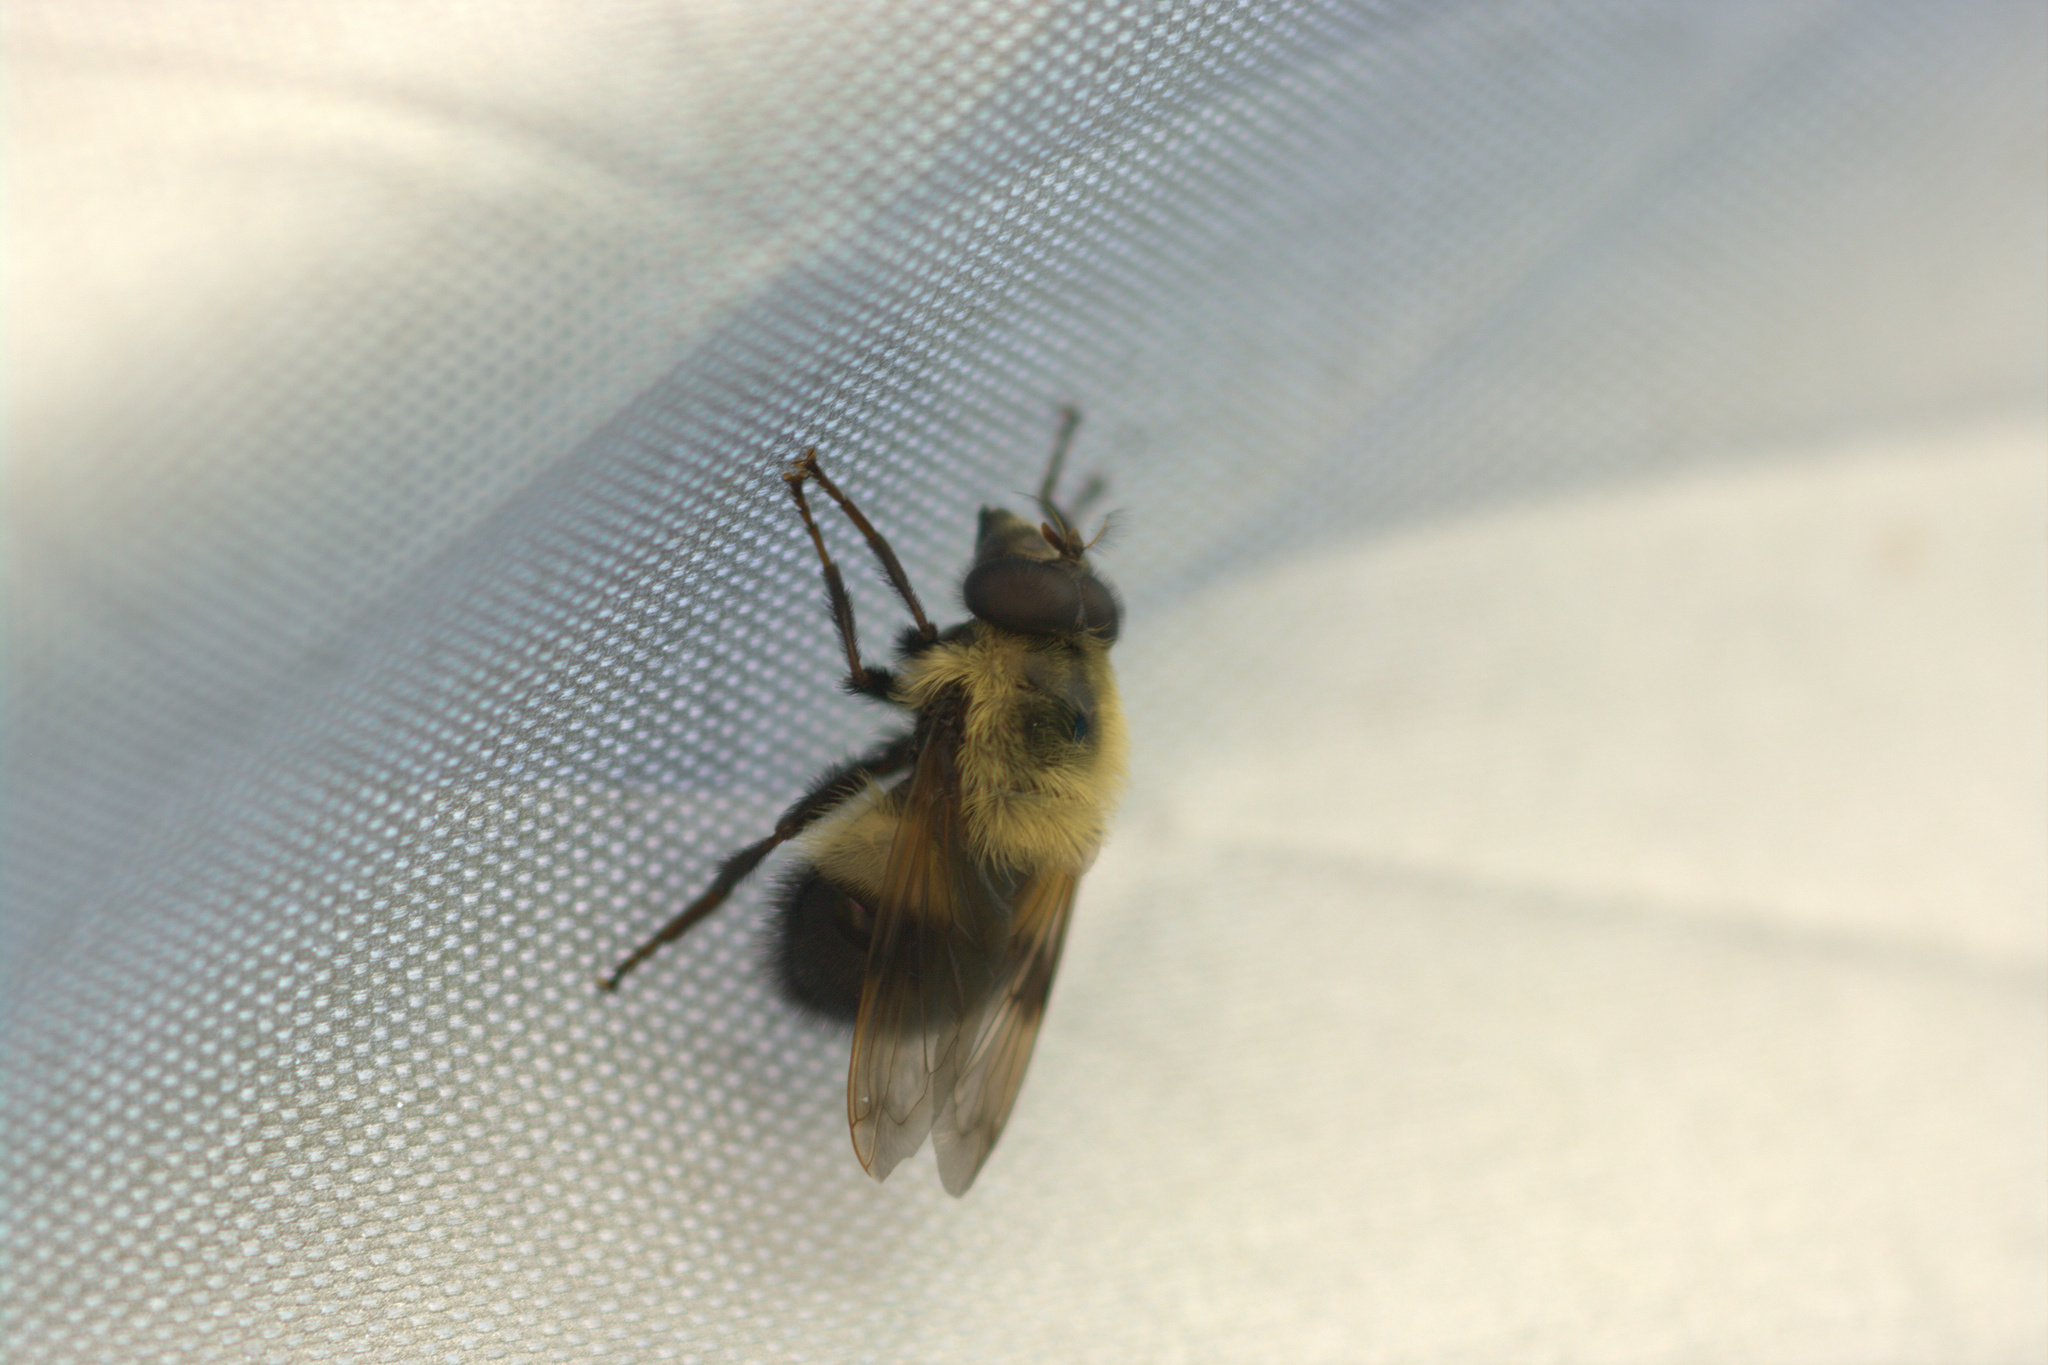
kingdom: Animalia
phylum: Arthropoda
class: Insecta
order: Diptera
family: Syrphidae
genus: Volucella
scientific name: Volucella evecta
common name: Eastern swiftwing
